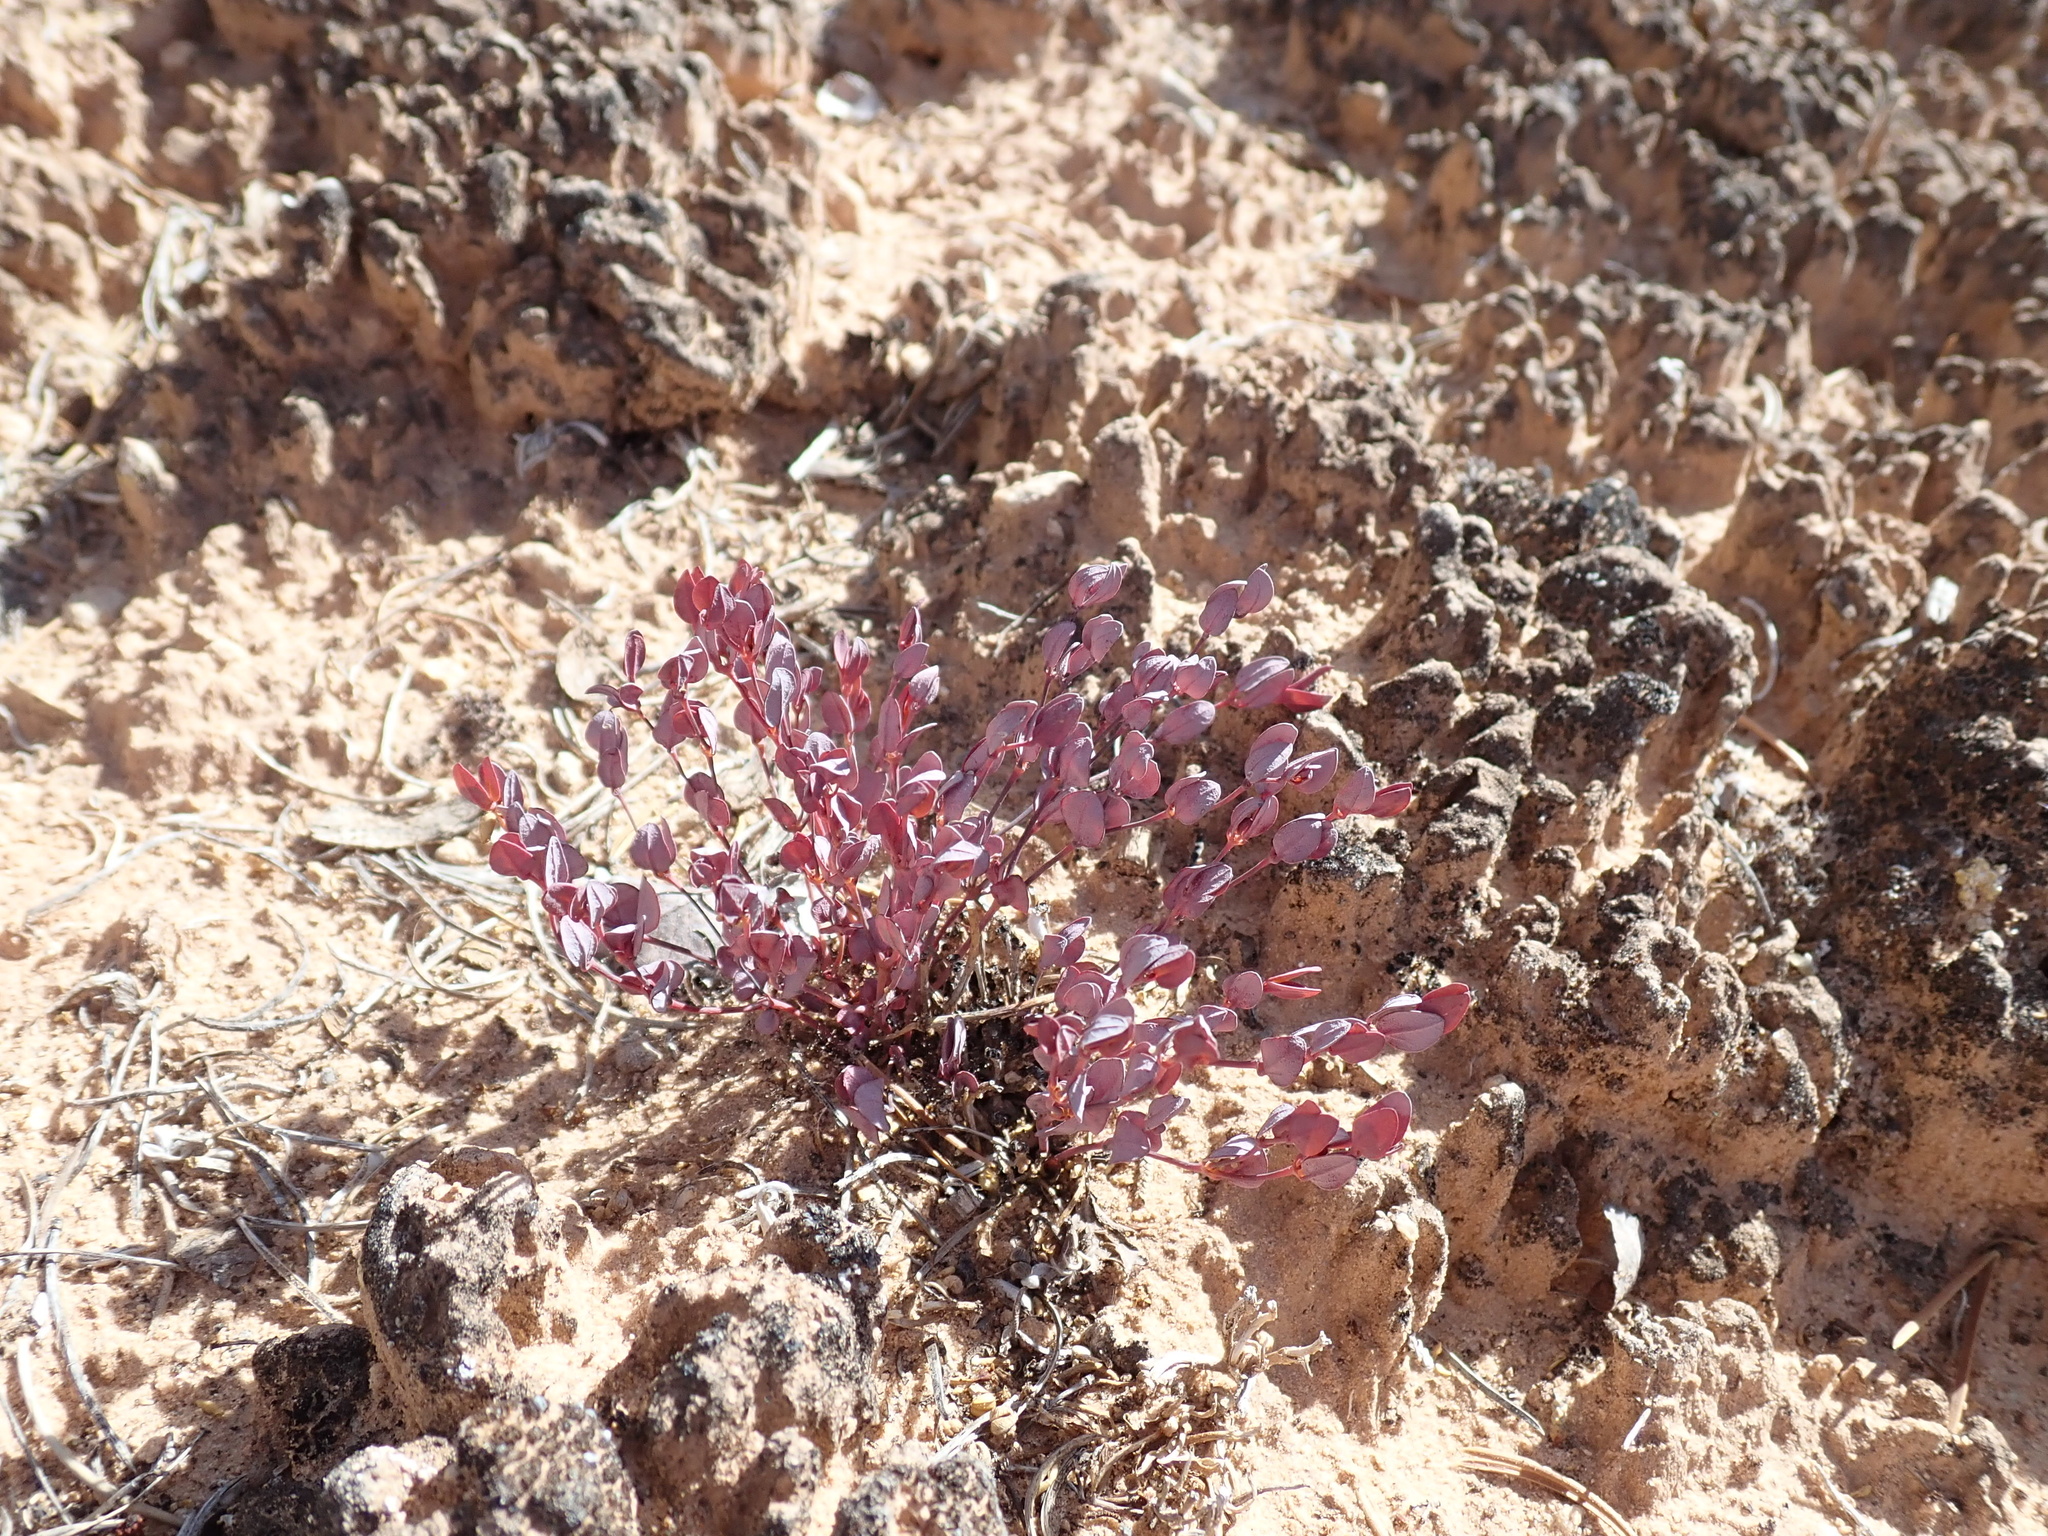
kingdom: Plantae
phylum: Tracheophyta
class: Magnoliopsida
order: Malpighiales
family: Euphorbiaceae
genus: Euphorbia
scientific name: Euphorbia fendleri
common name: Fendler's euphorbia
